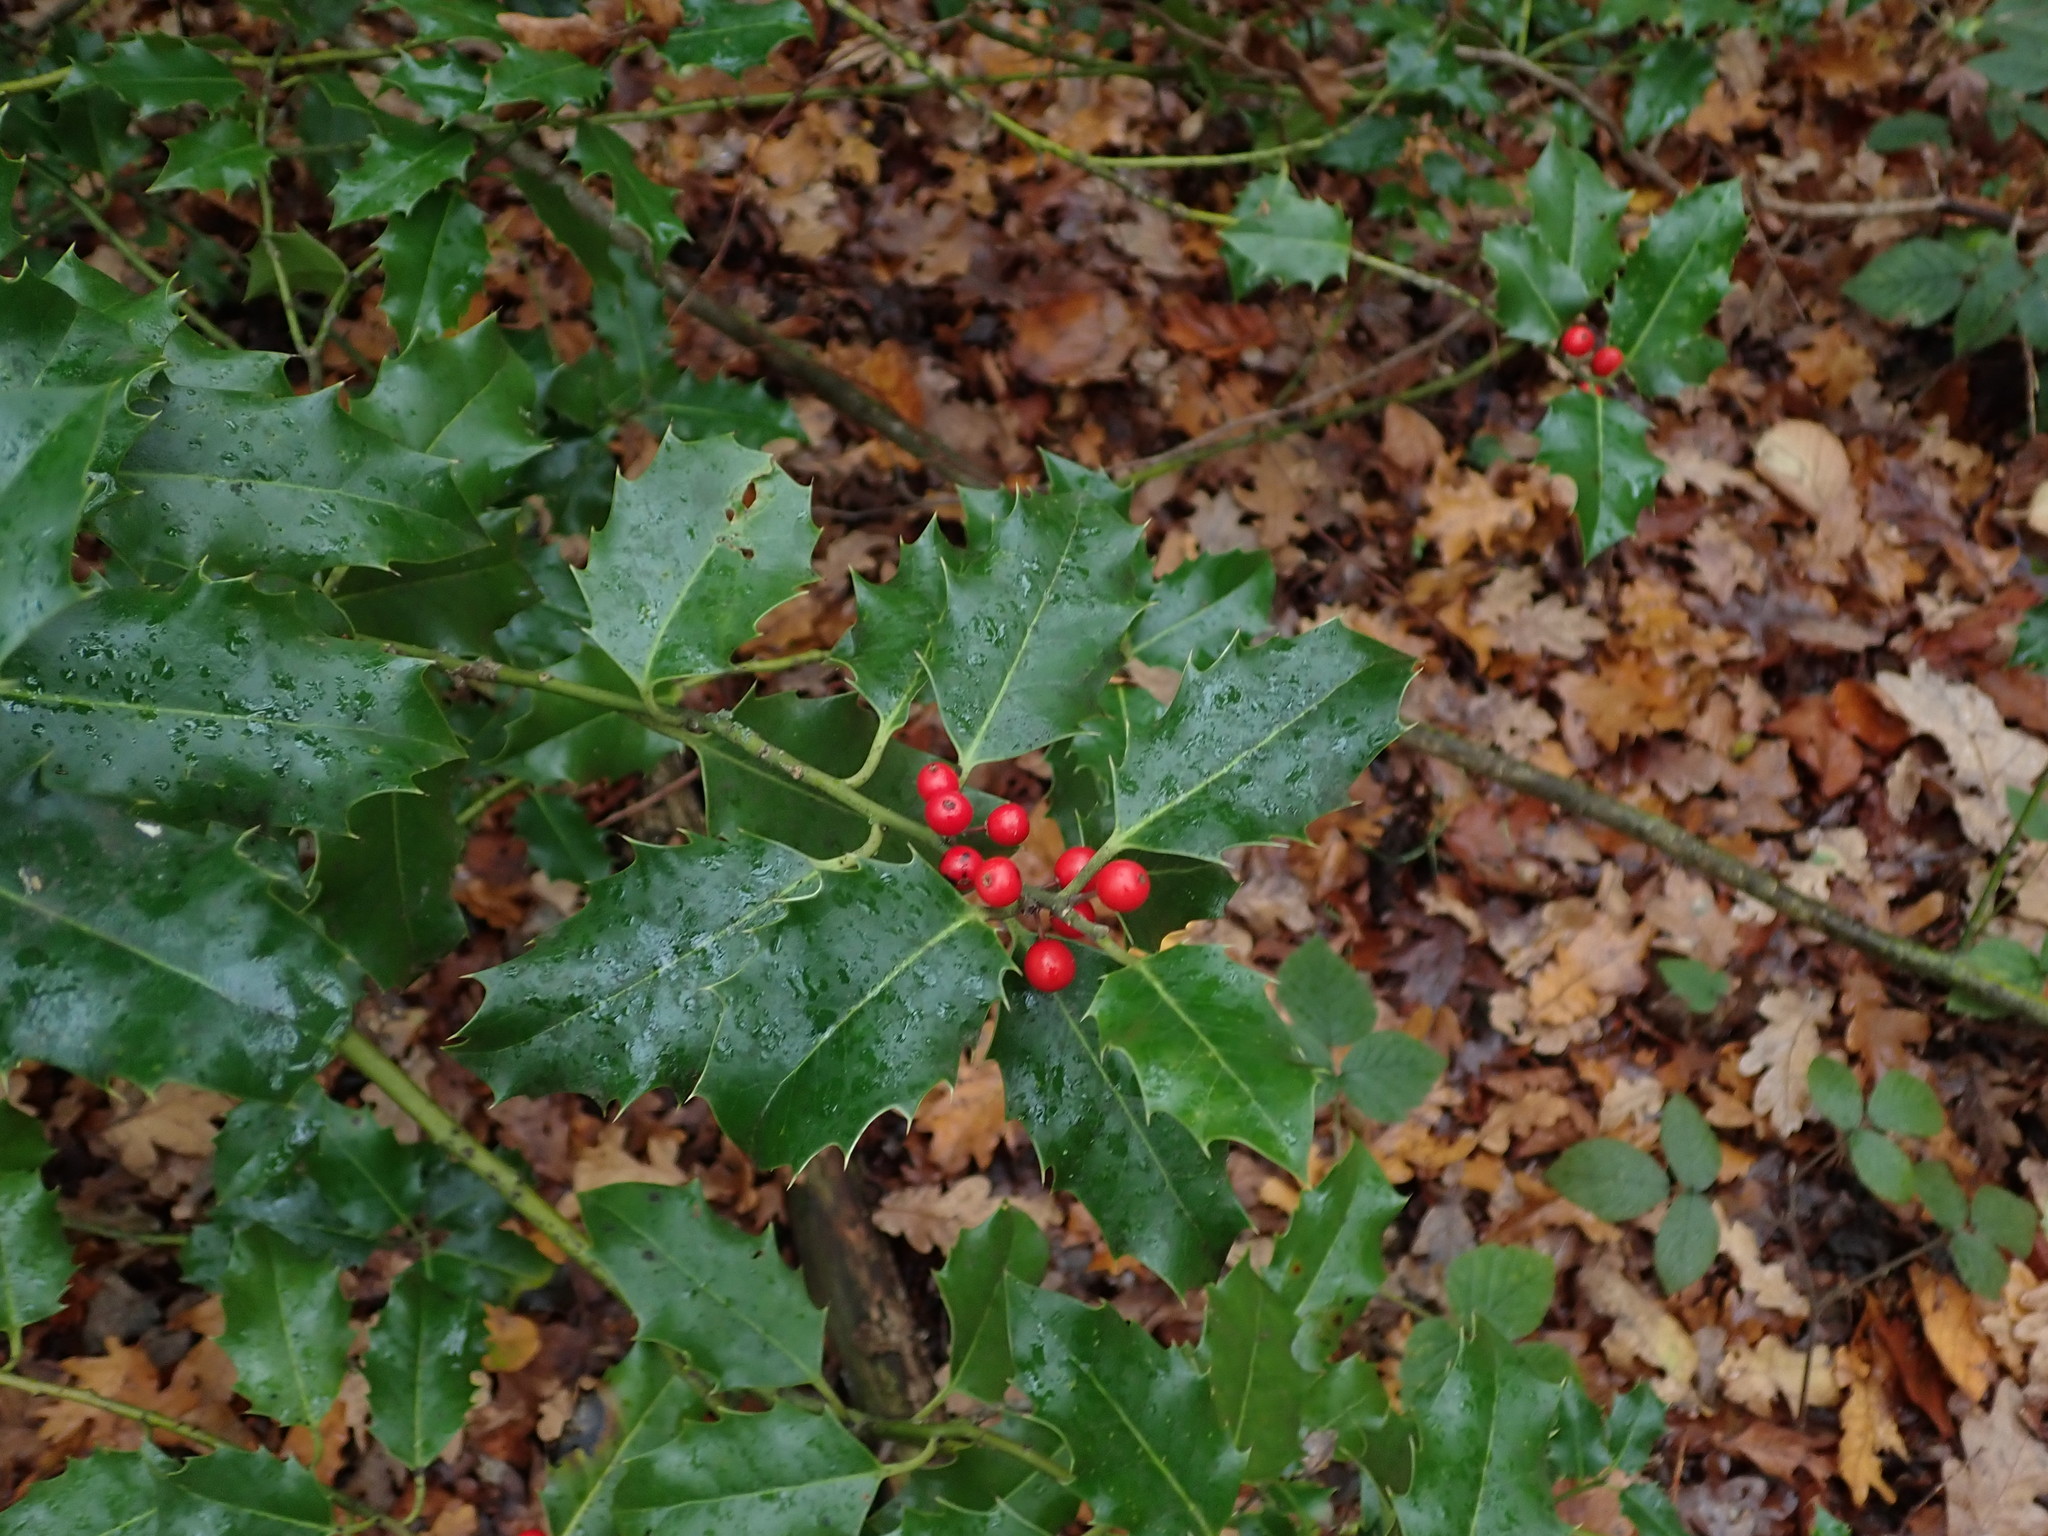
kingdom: Plantae
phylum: Tracheophyta
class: Magnoliopsida
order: Aquifoliales
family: Aquifoliaceae
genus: Ilex
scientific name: Ilex aquifolium
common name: English holly
